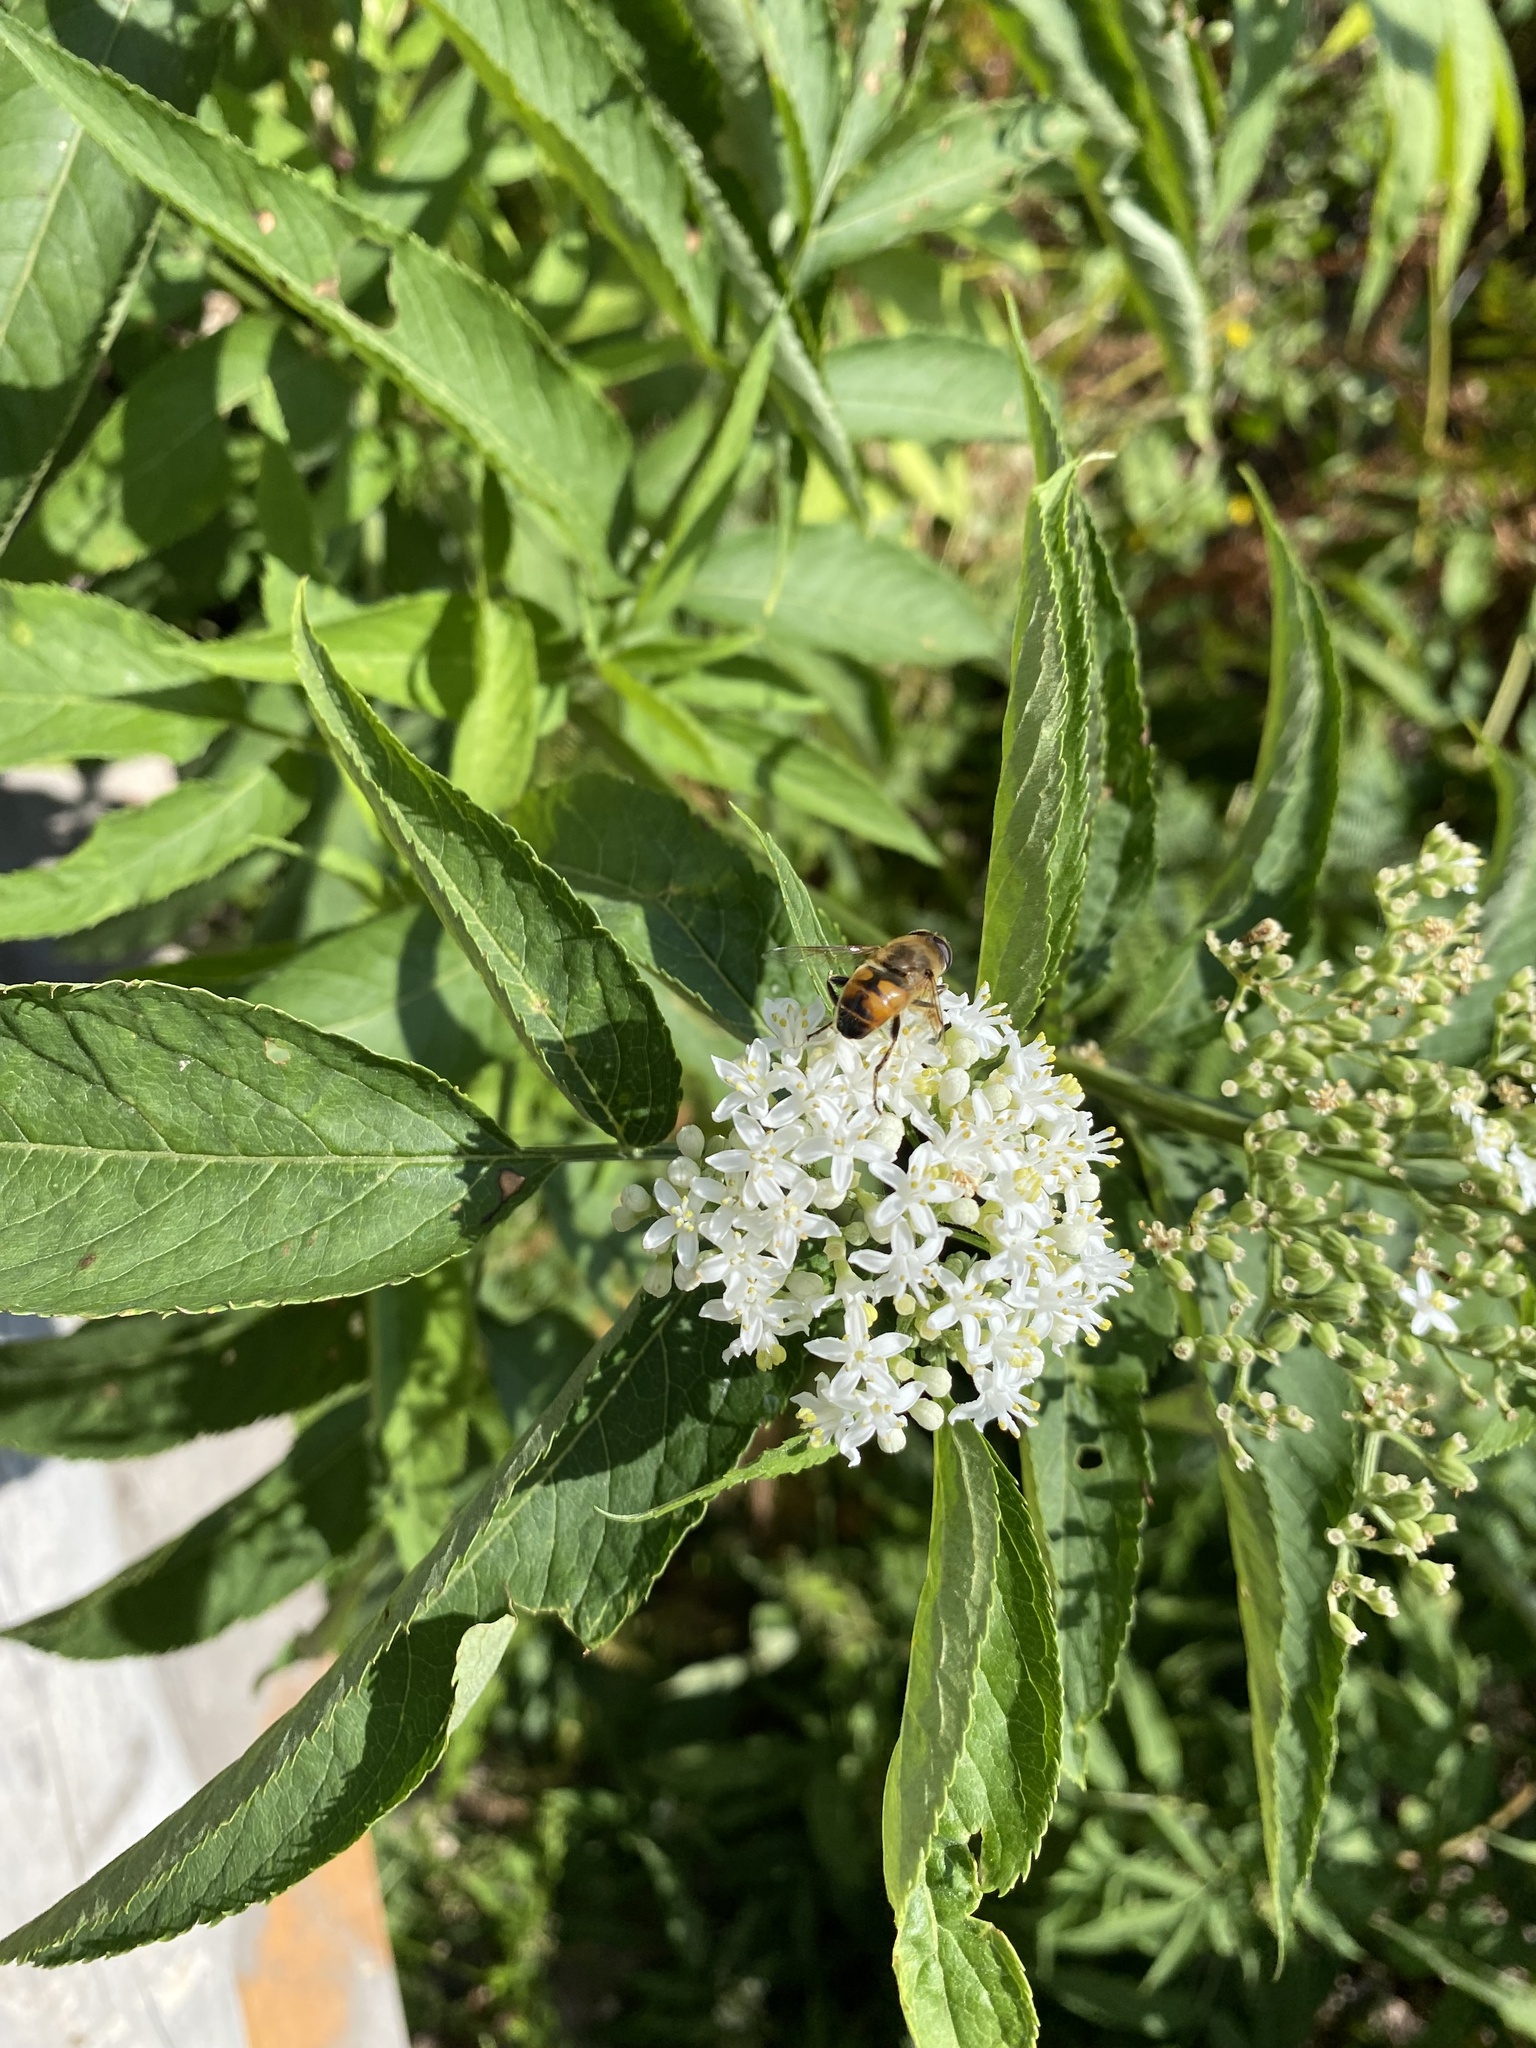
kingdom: Animalia
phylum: Arthropoda
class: Insecta
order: Diptera
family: Syrphidae
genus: Eristalis
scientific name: Eristalis tenax
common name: Drone fly
